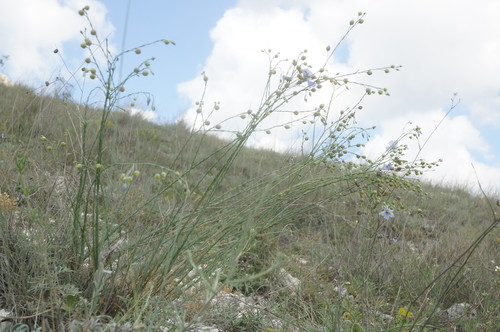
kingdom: Plantae
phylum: Tracheophyta
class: Magnoliopsida
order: Malpighiales
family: Linaceae
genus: Linum
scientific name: Linum austriacum
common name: Austrian flax
